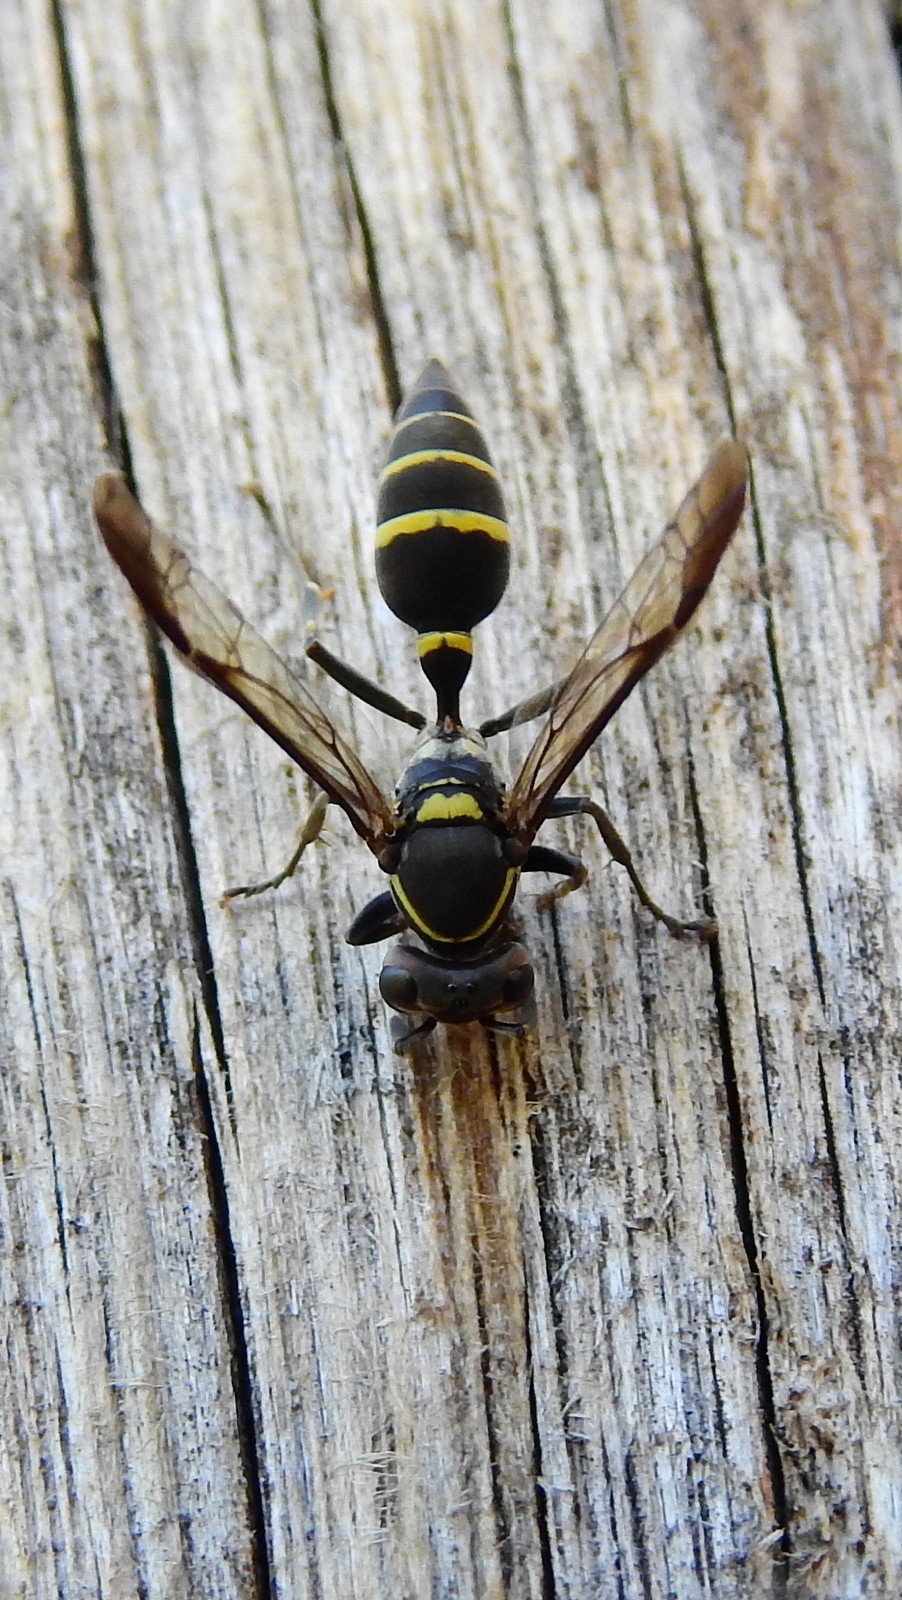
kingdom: Animalia
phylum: Arthropoda
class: Insecta
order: Hymenoptera
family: Eumenidae
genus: Polybia
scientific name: Polybia ruficeps
